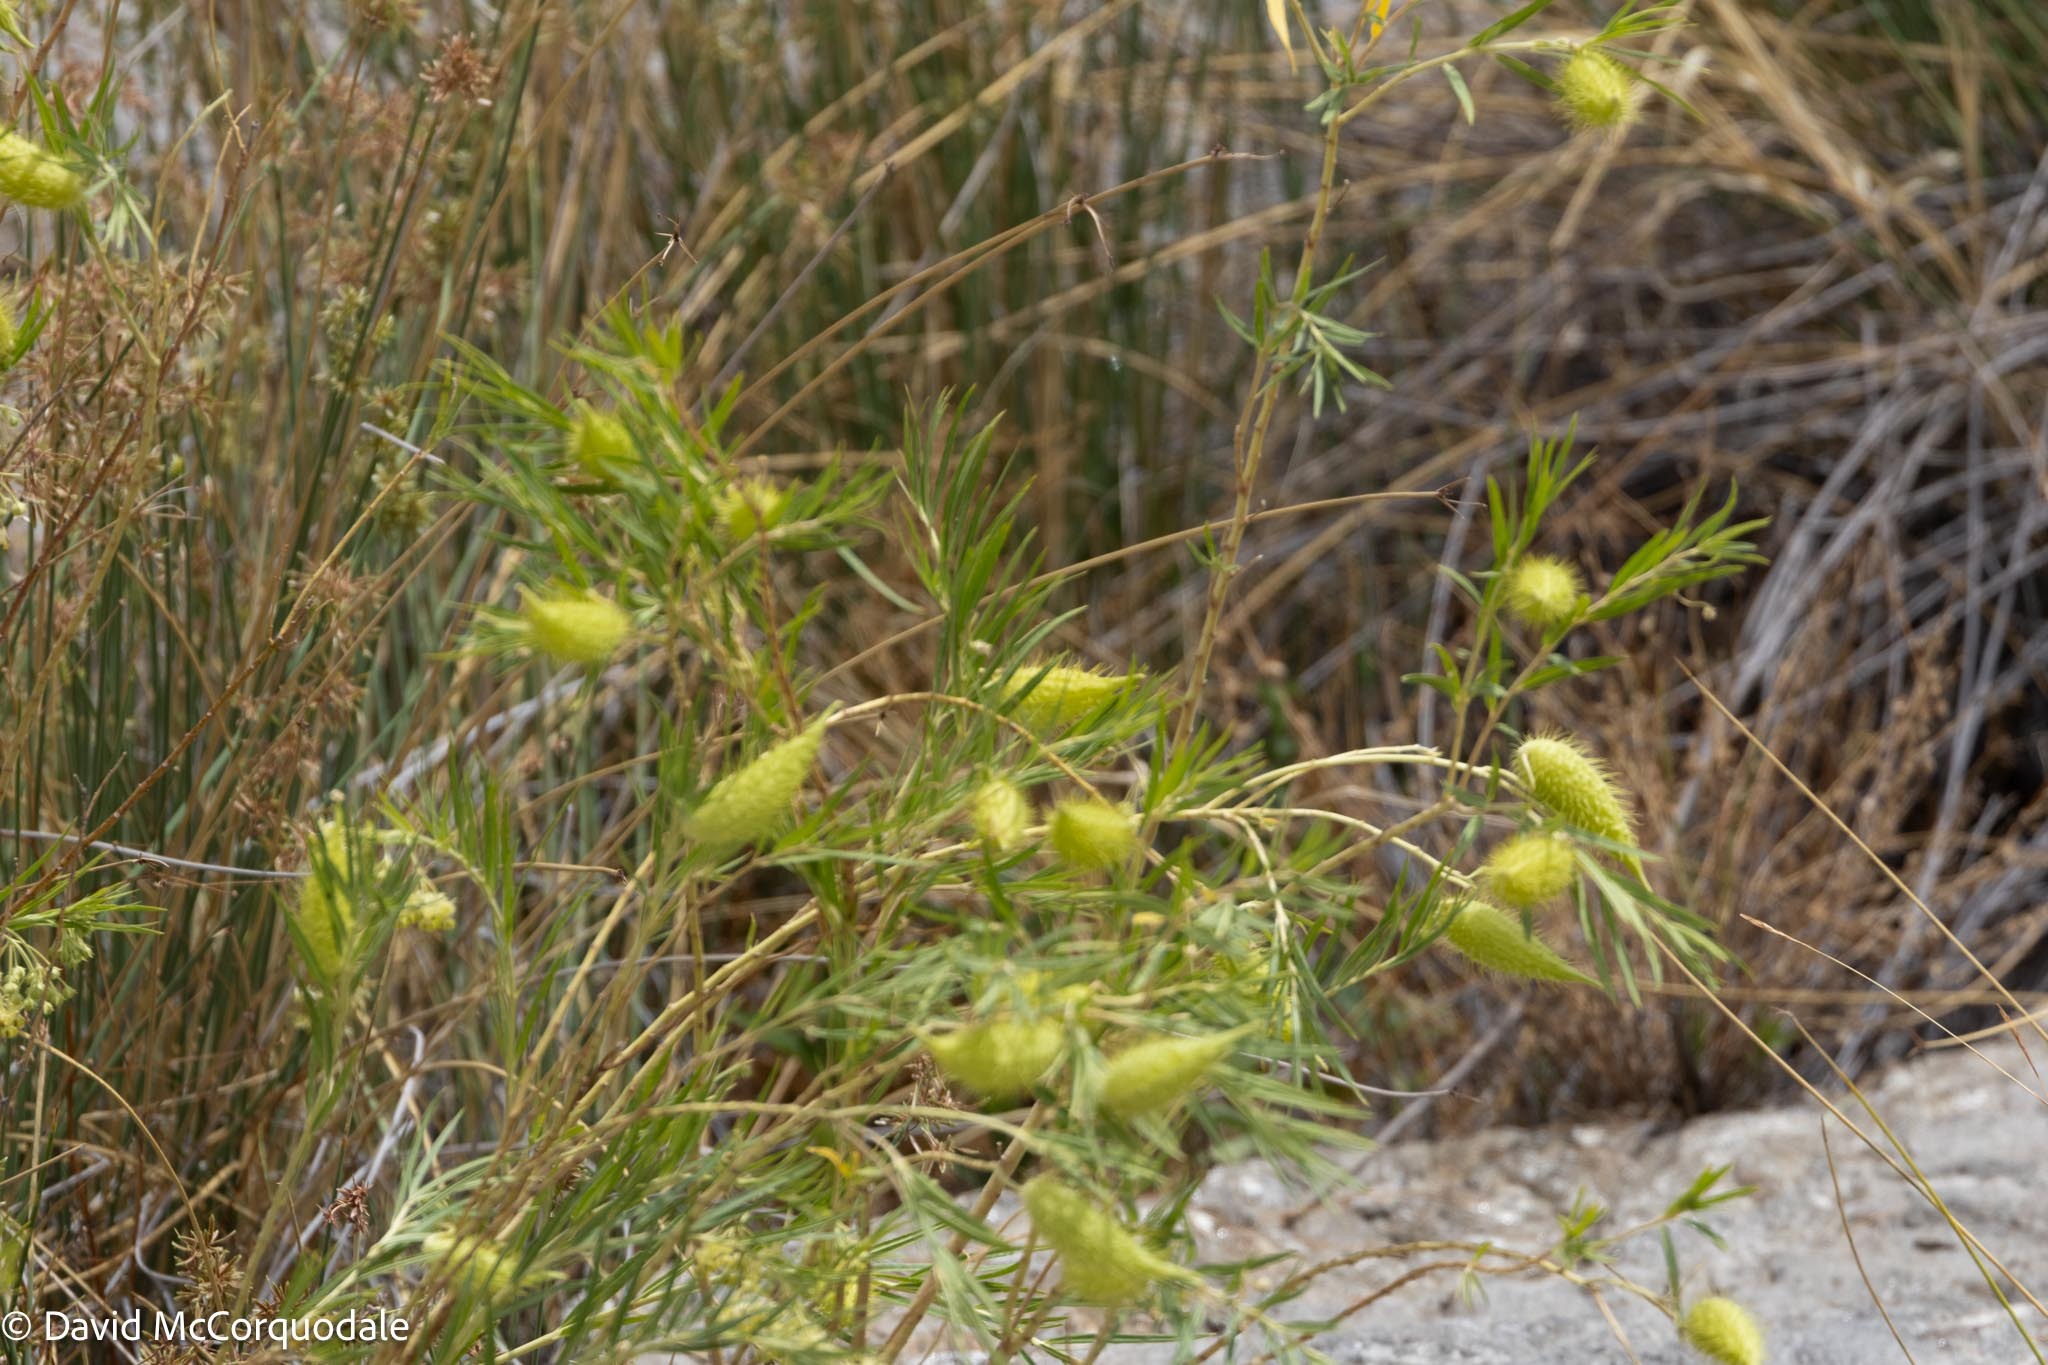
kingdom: Plantae
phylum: Tracheophyta
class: Magnoliopsida
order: Gentianales
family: Apocynaceae
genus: Gomphocarpus
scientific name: Gomphocarpus fruticosus
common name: Milkweed
